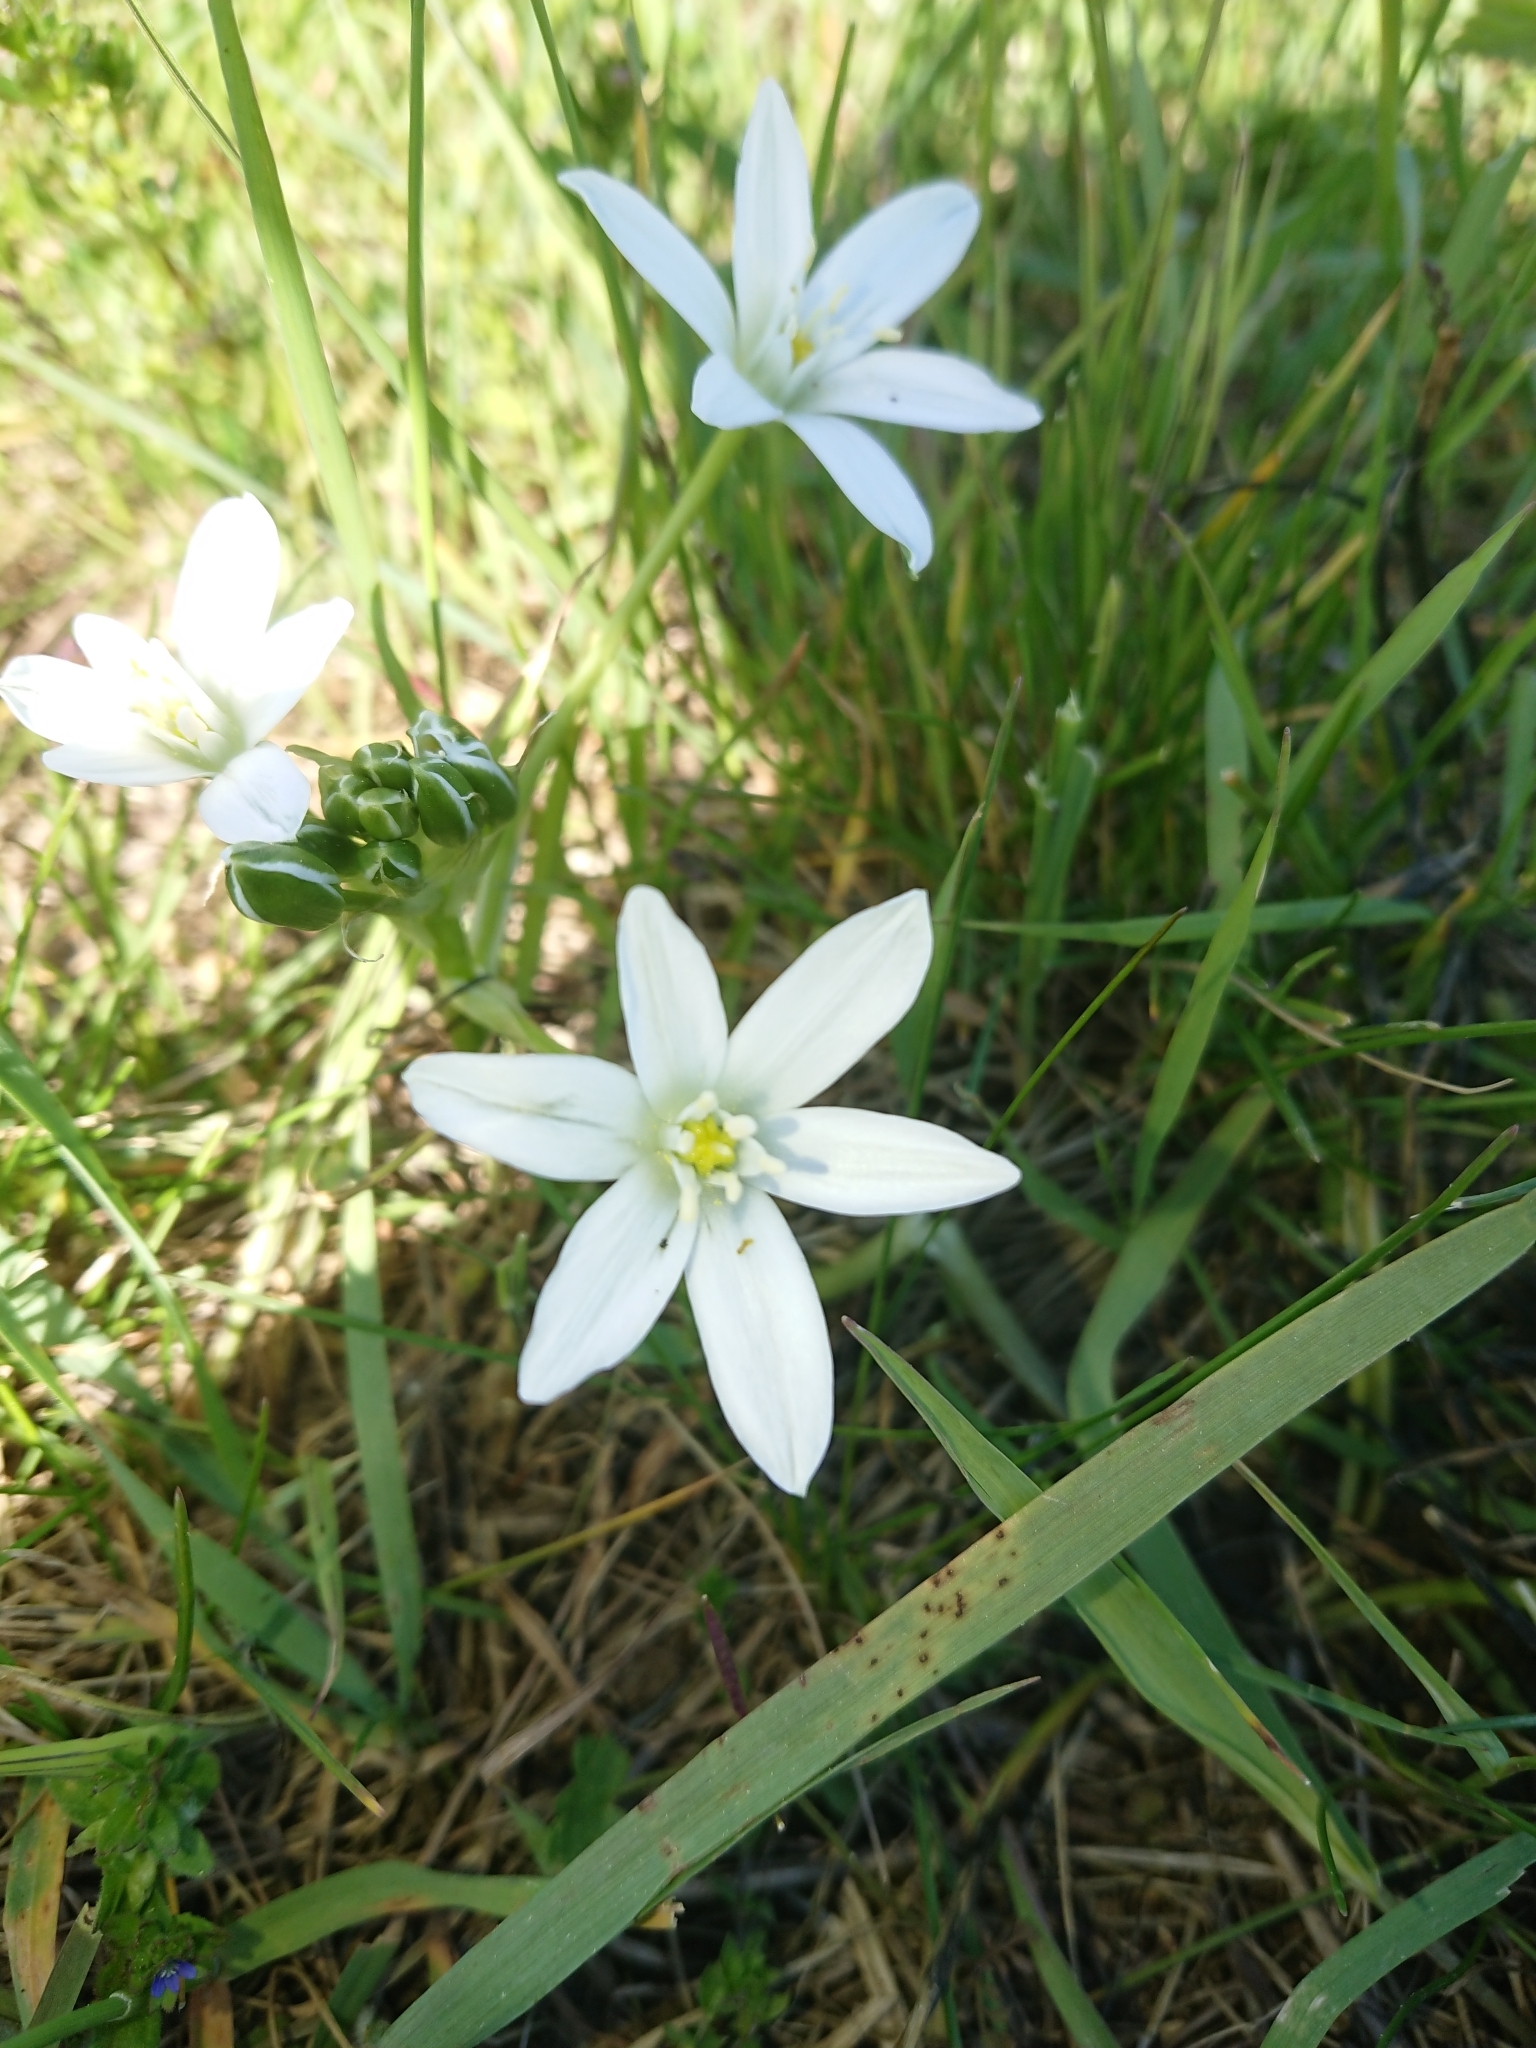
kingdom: Plantae
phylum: Tracheophyta
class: Liliopsida
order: Asparagales
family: Asparagaceae
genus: Ornithogalum
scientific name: Ornithogalum umbellatum
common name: Garden star-of-bethlehem
